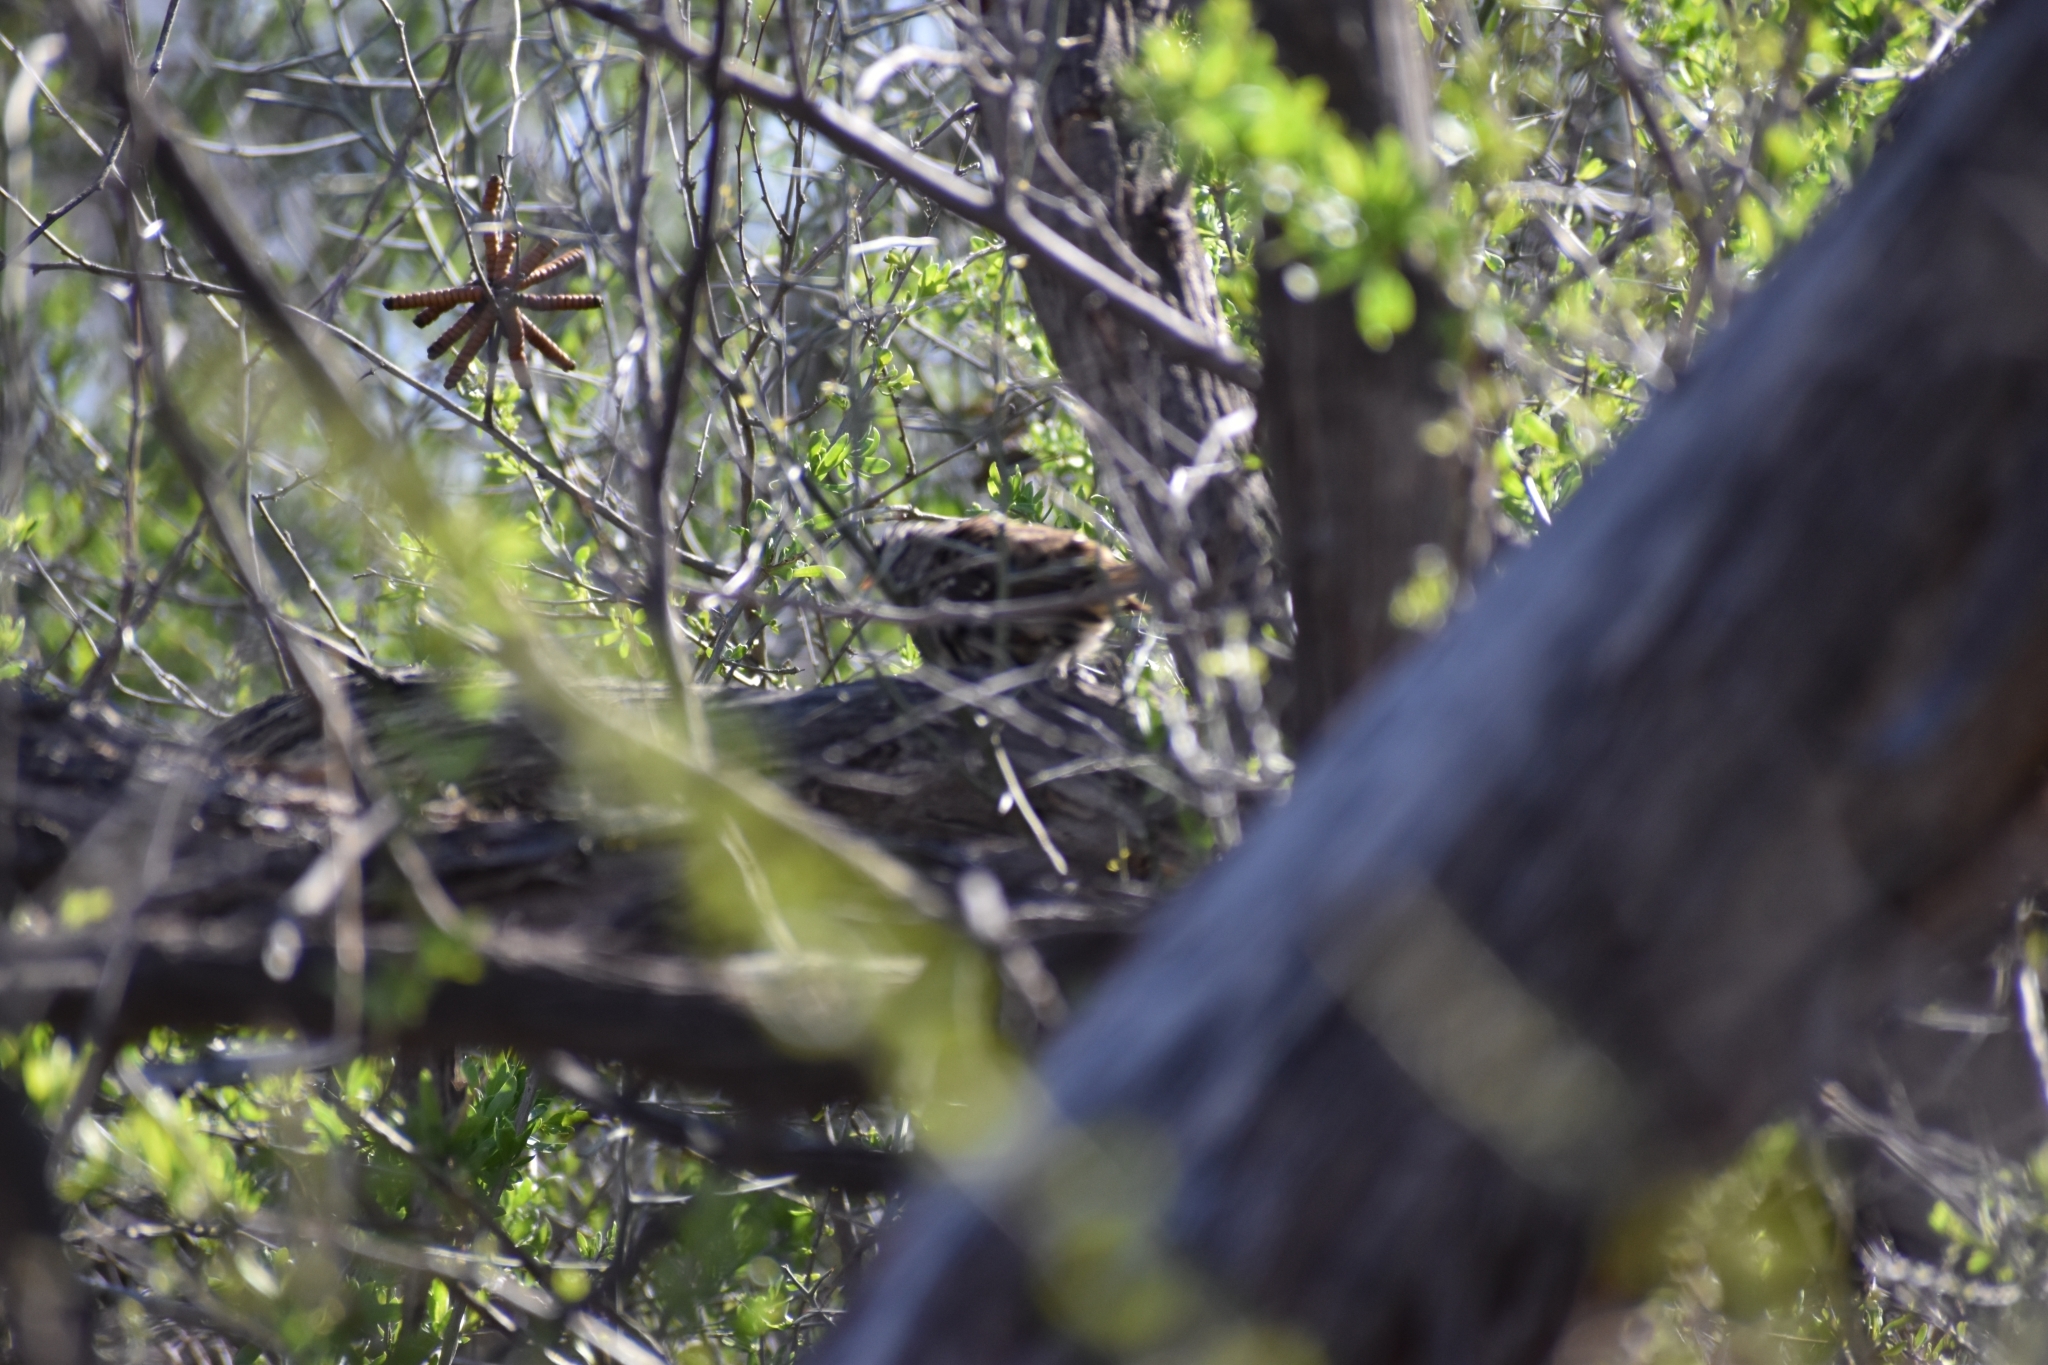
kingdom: Animalia
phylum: Chordata
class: Aves
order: Passeriformes
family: Passerellidae
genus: Zonotrichia
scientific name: Zonotrichia leucophrys
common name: White-crowned sparrow
